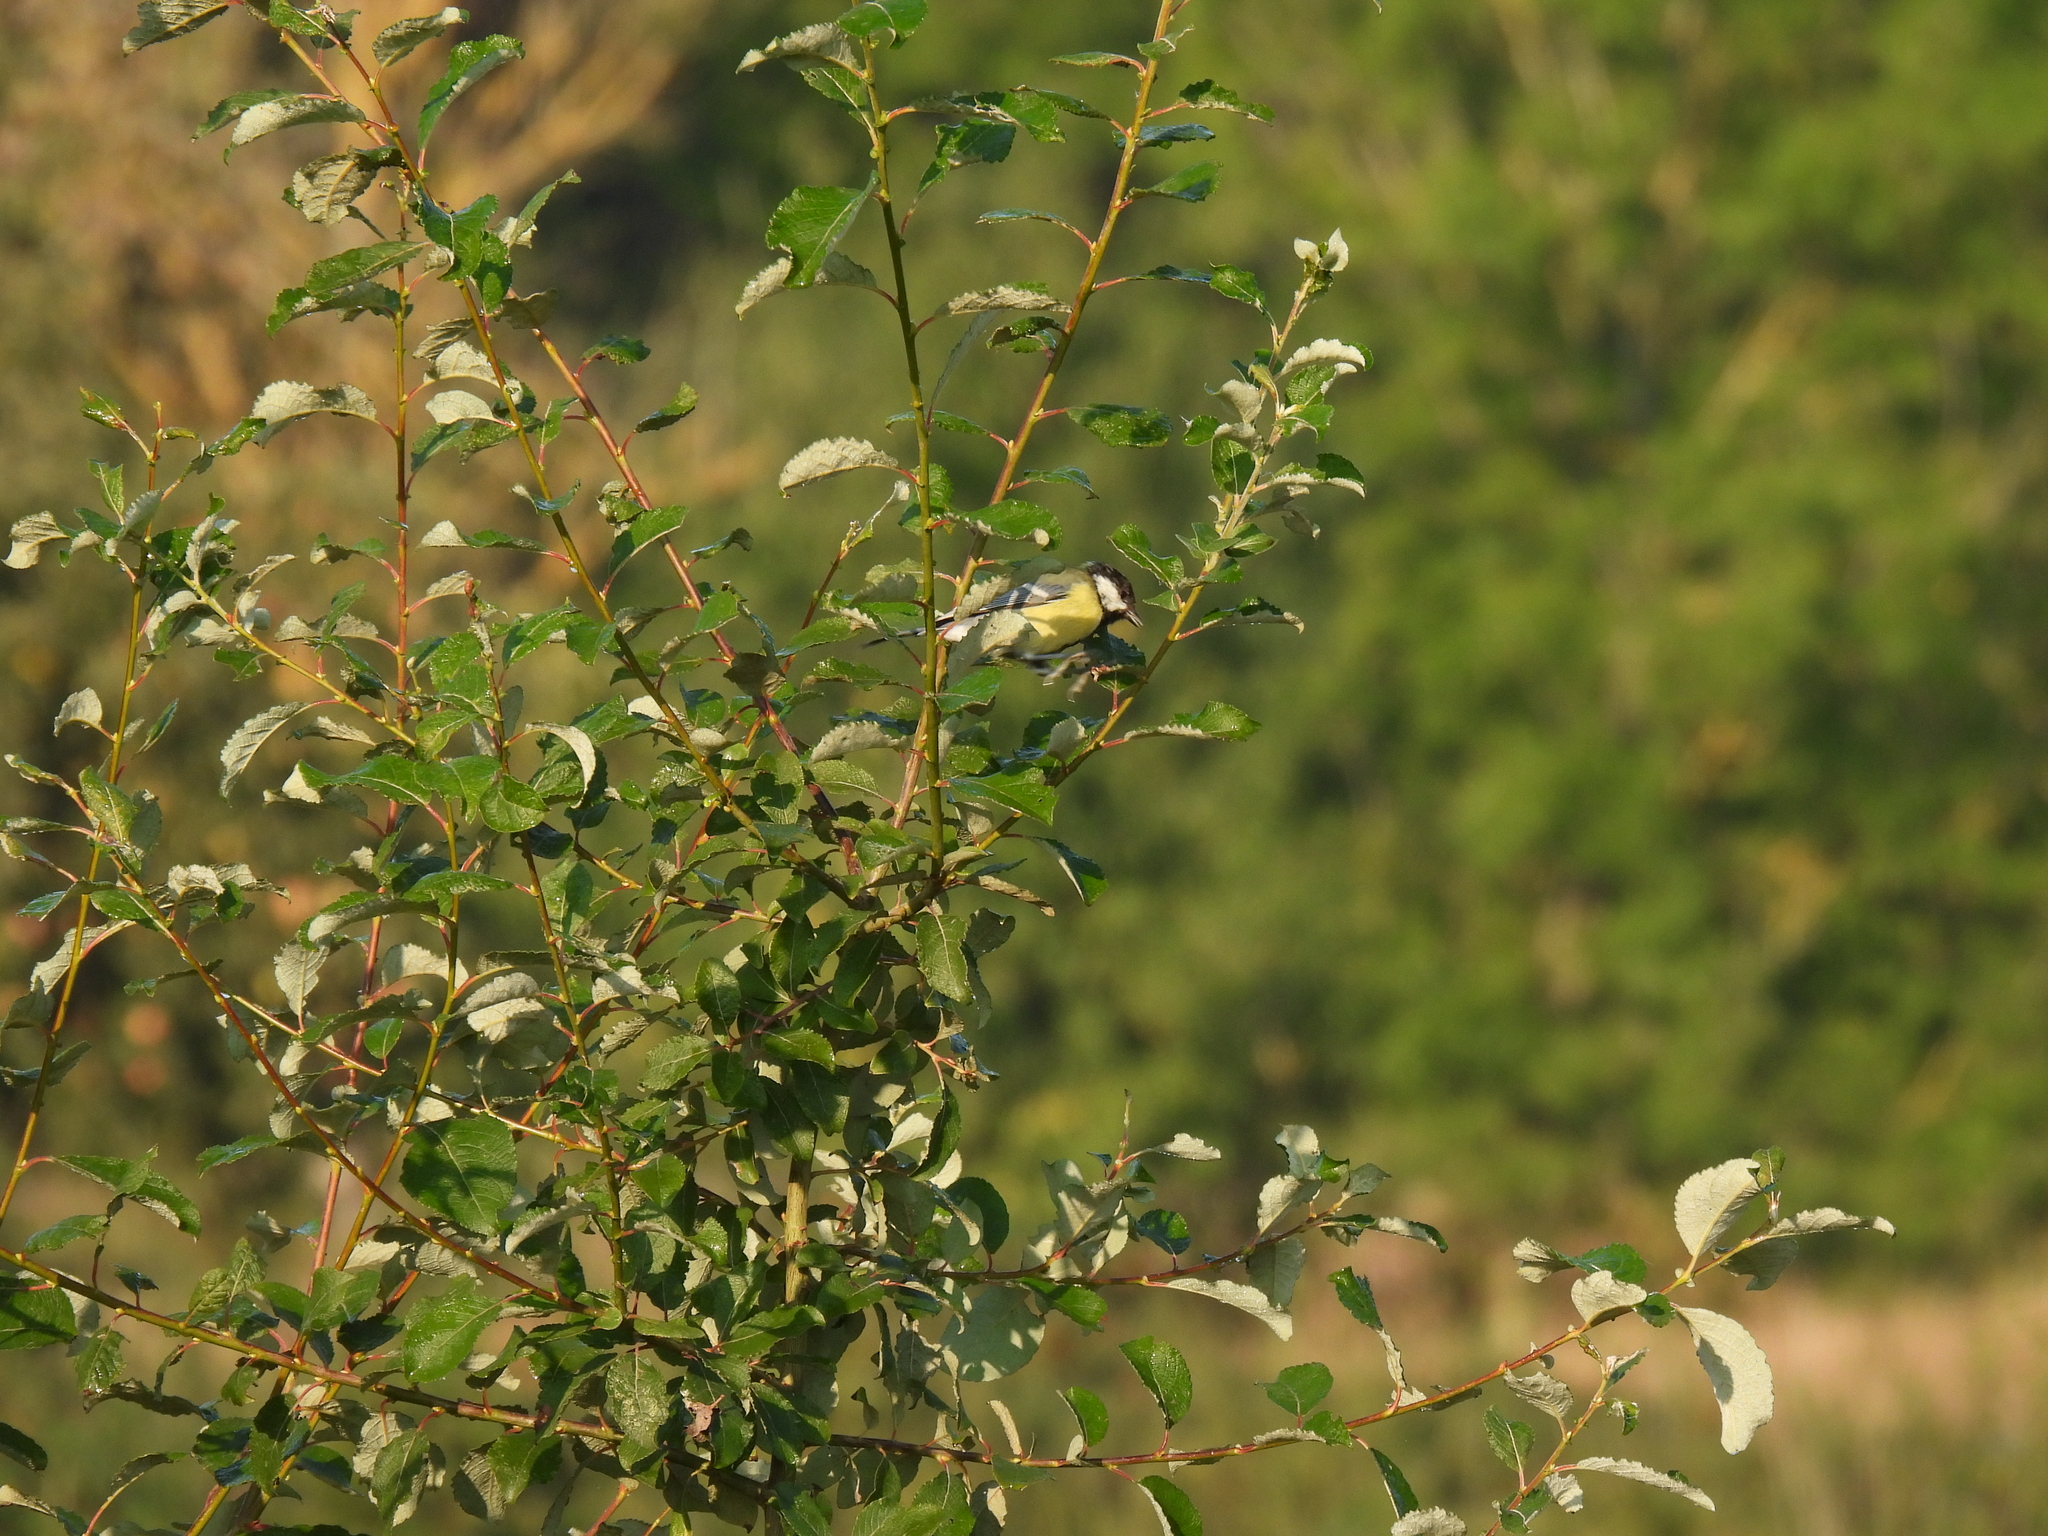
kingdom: Animalia
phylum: Chordata
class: Aves
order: Passeriformes
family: Paridae
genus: Parus
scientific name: Parus major
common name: Great tit
